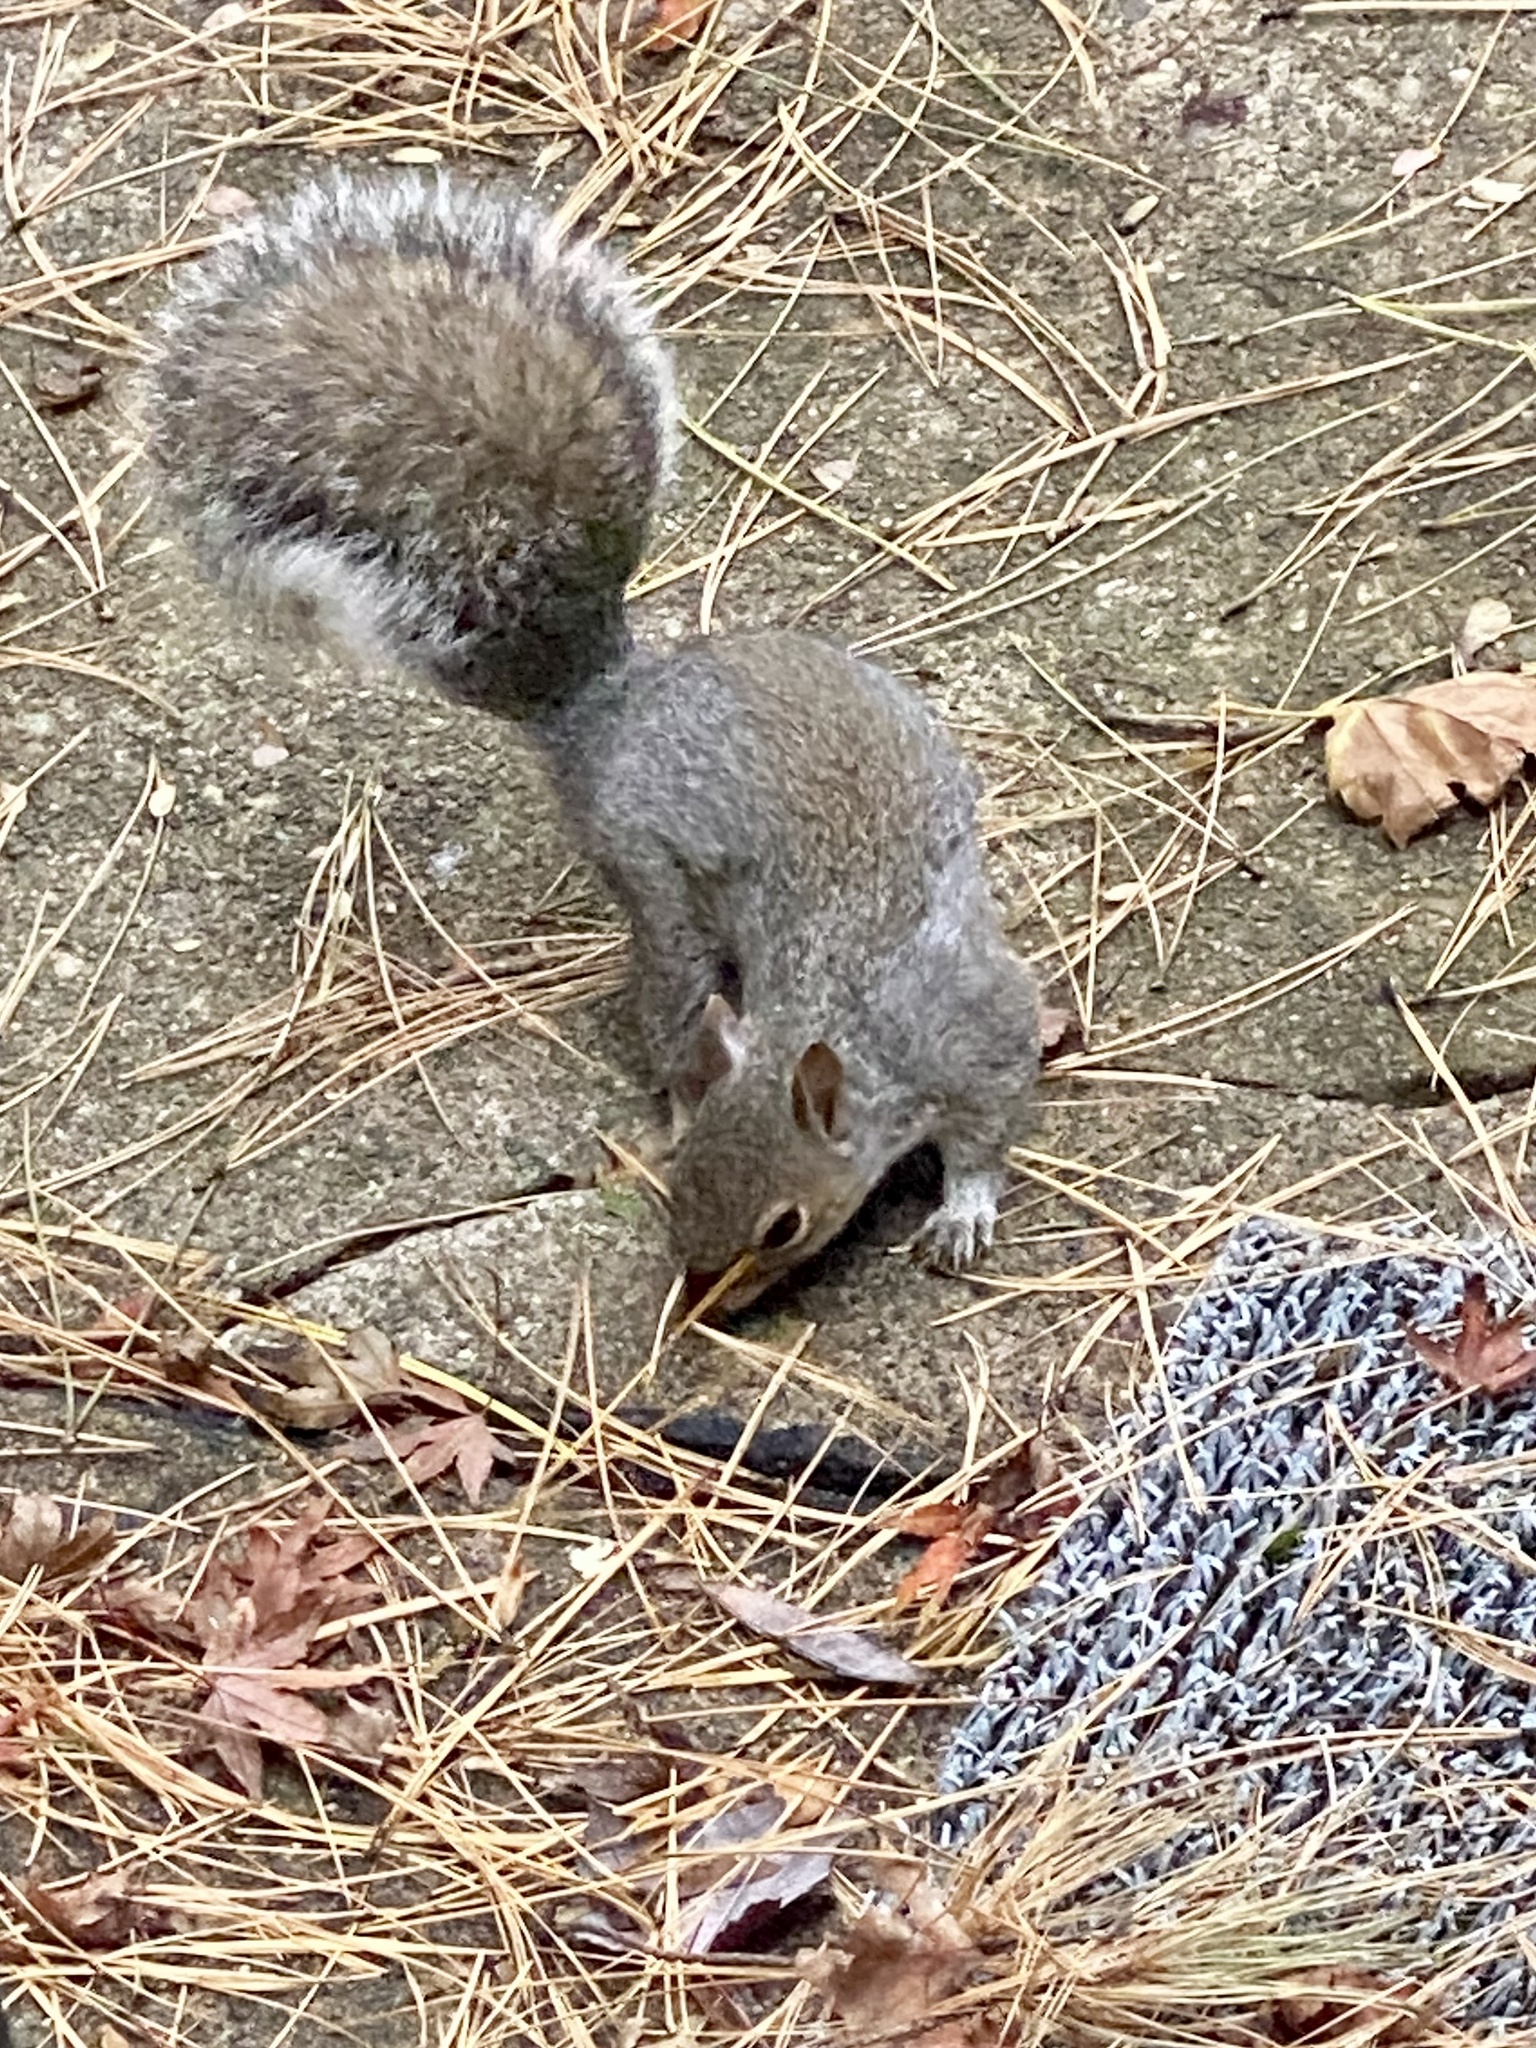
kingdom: Animalia
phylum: Chordata
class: Mammalia
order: Rodentia
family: Sciuridae
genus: Sciurus
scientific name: Sciurus carolinensis
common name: Eastern gray squirrel
